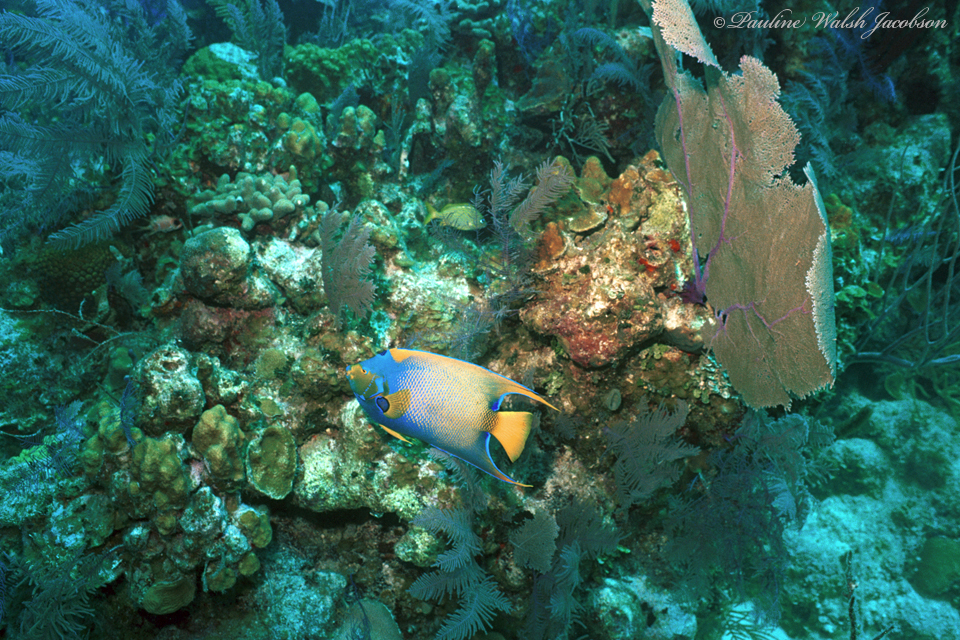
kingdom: Animalia
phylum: Chordata
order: Perciformes
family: Pomacanthidae
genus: Holacanthus
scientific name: Holacanthus ciliaris
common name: Queen angelfish
